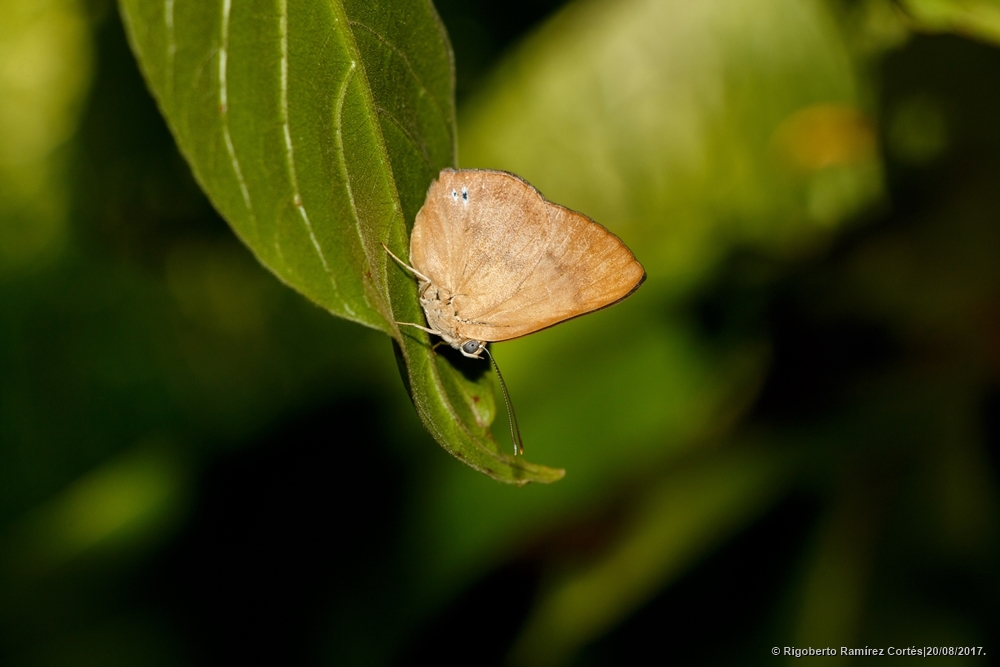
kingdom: Animalia
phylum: Arthropoda
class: Insecta
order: Lepidoptera
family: Nymphalidae
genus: Ethope
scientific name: Ethope
